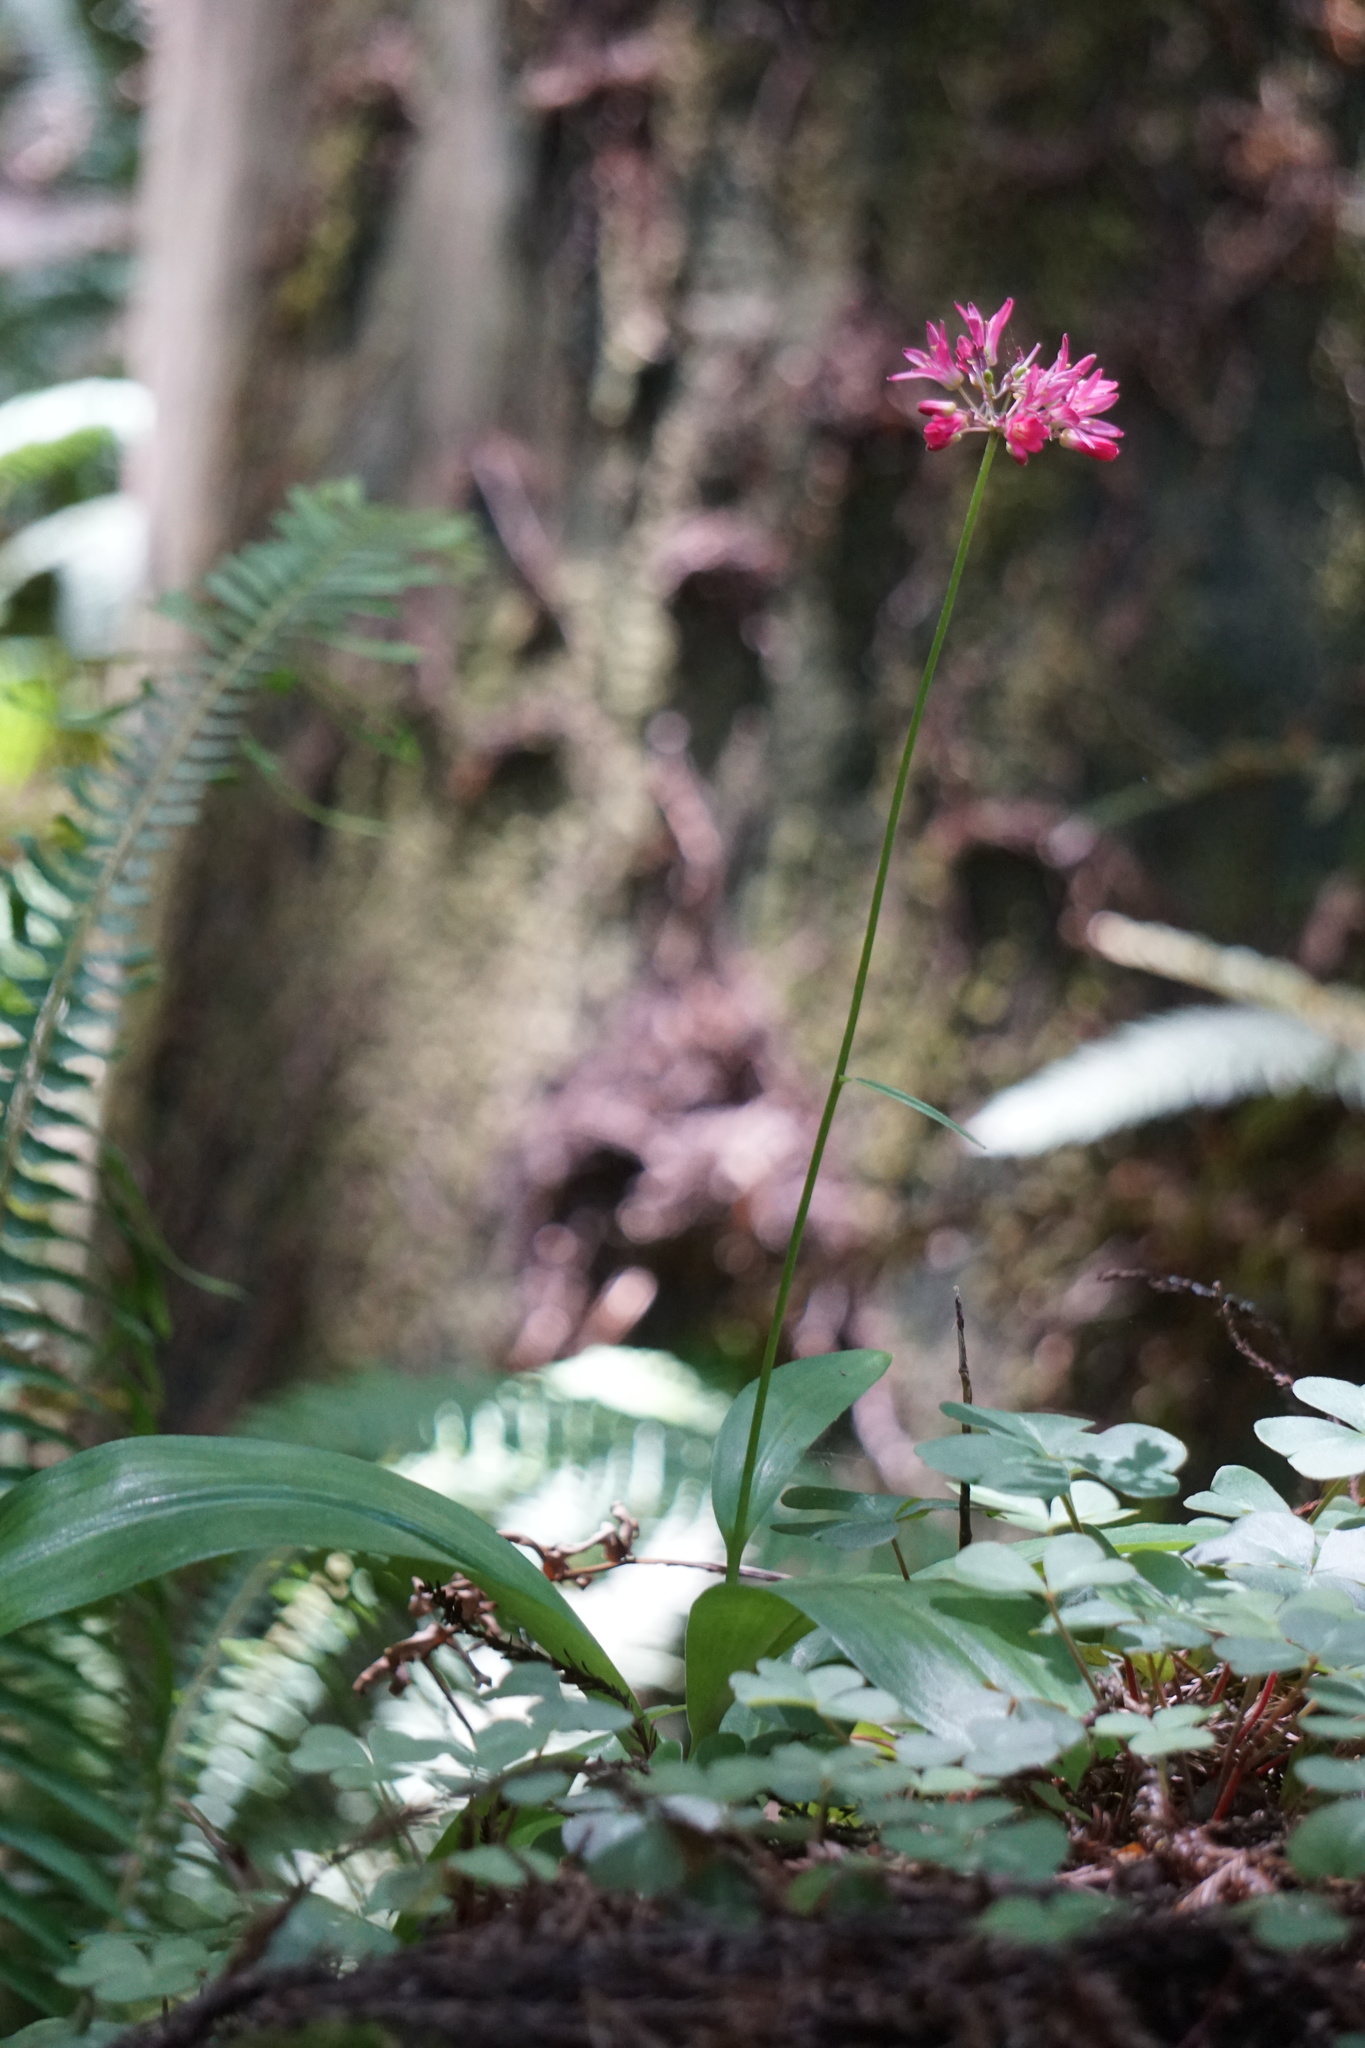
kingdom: Plantae
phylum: Tracheophyta
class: Liliopsida
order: Liliales
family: Liliaceae
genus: Clintonia
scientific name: Clintonia andrewsiana
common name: Red clintonia
